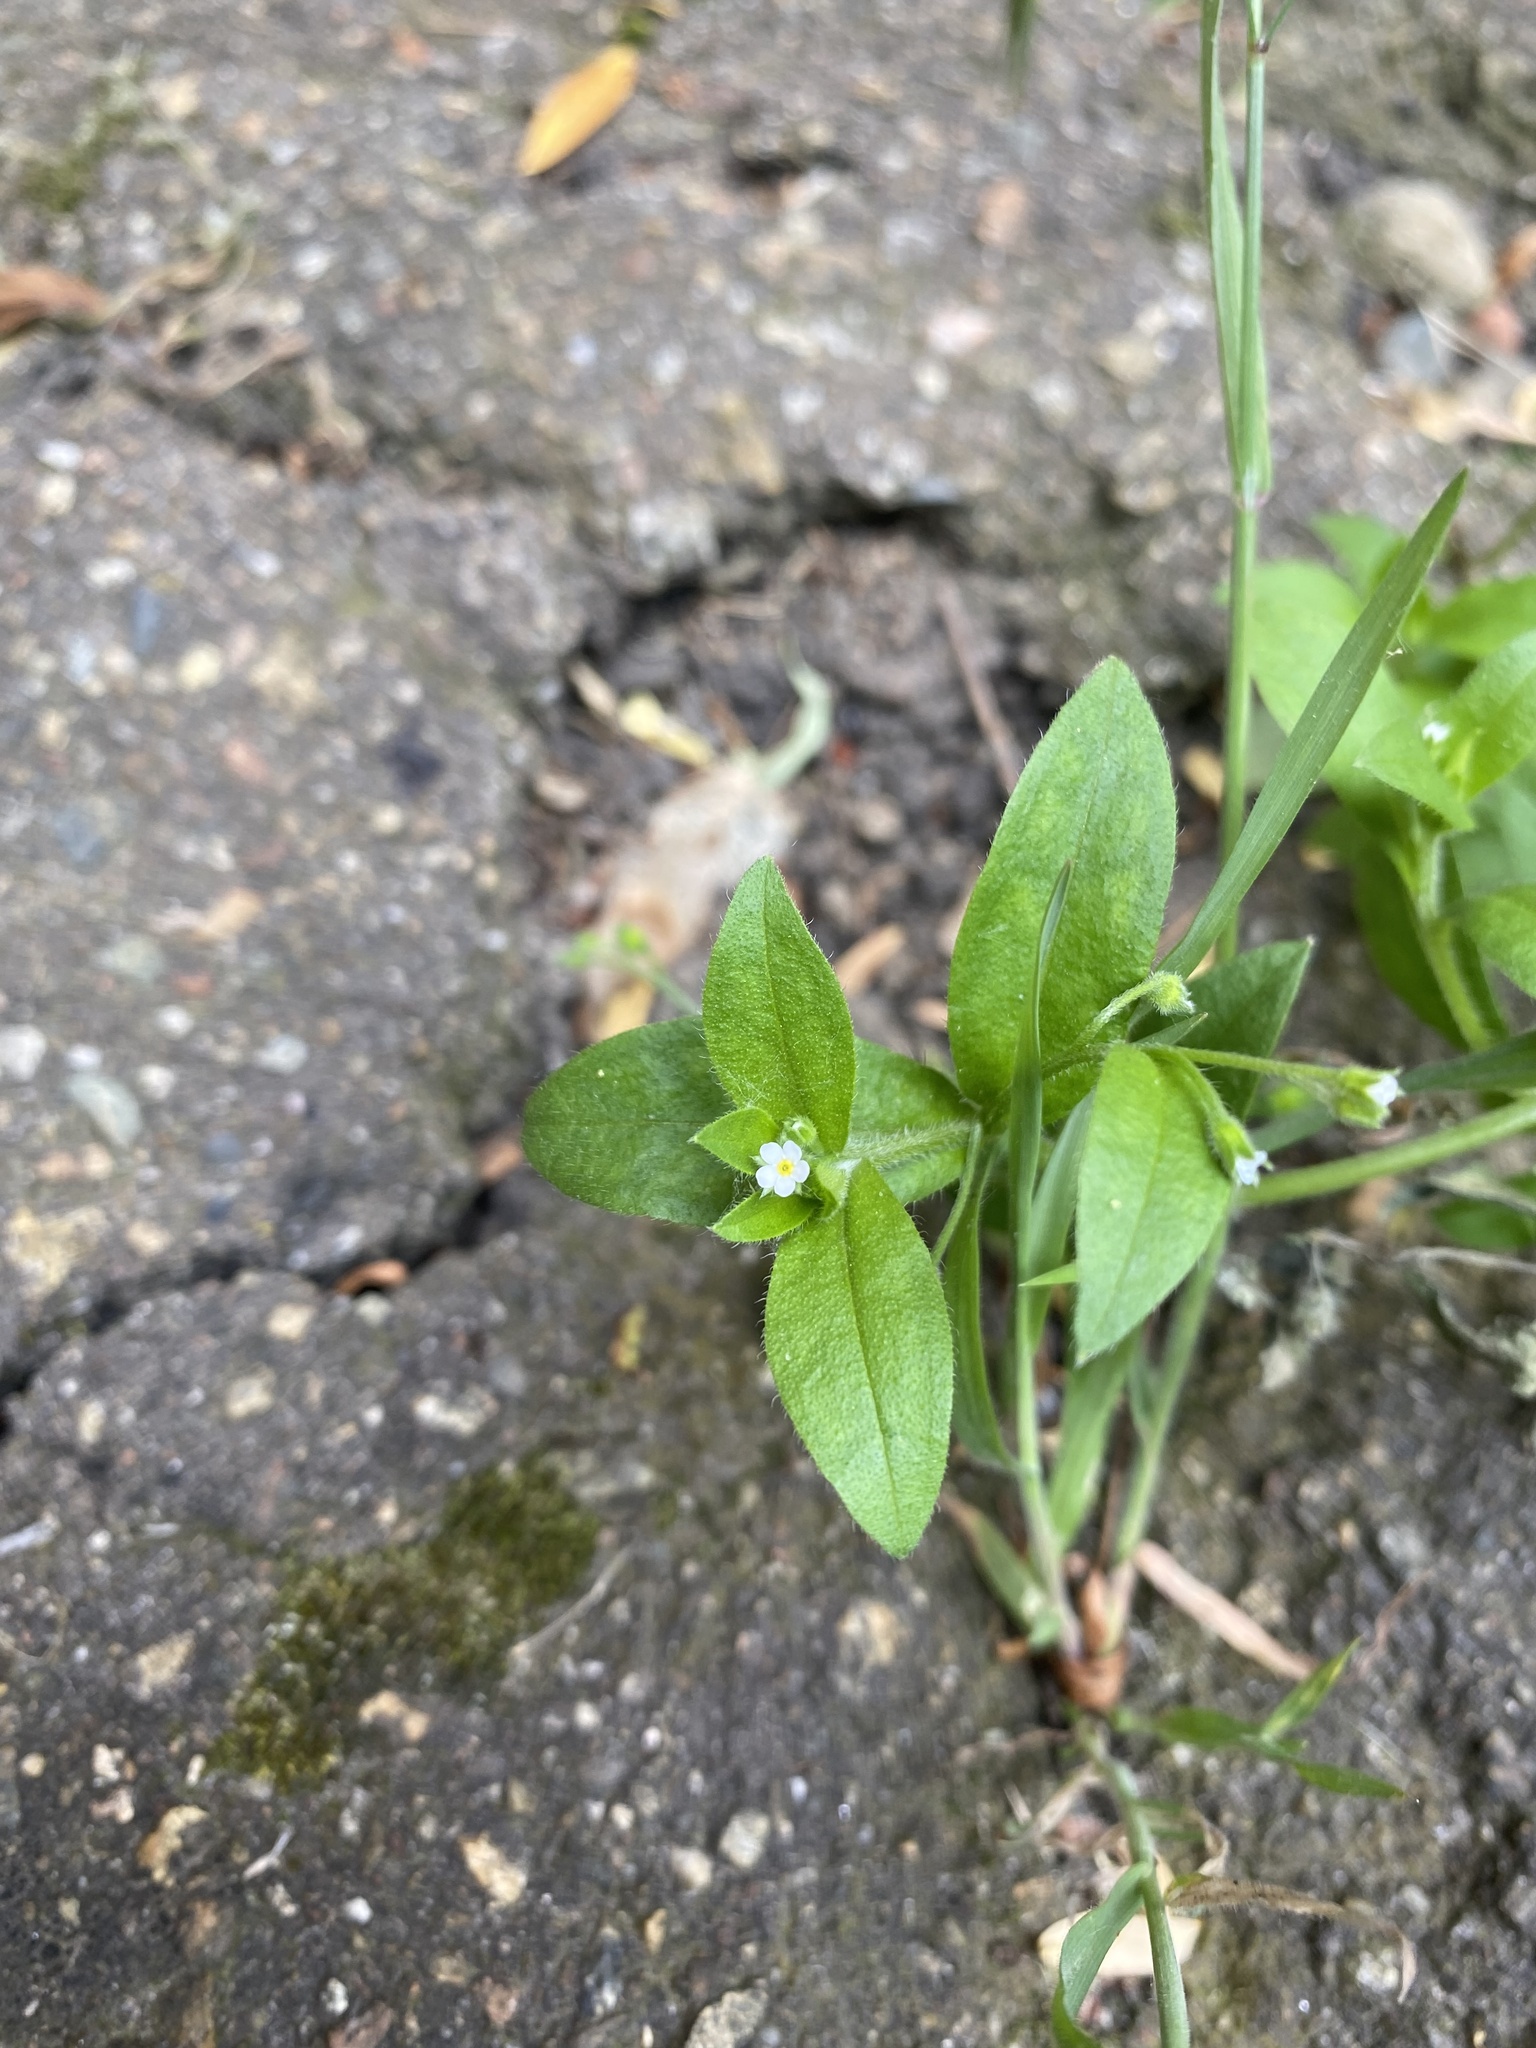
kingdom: Plantae
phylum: Tracheophyta
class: Magnoliopsida
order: Boraginales
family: Boraginaceae
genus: Myosotis
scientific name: Myosotis sparsiflora
